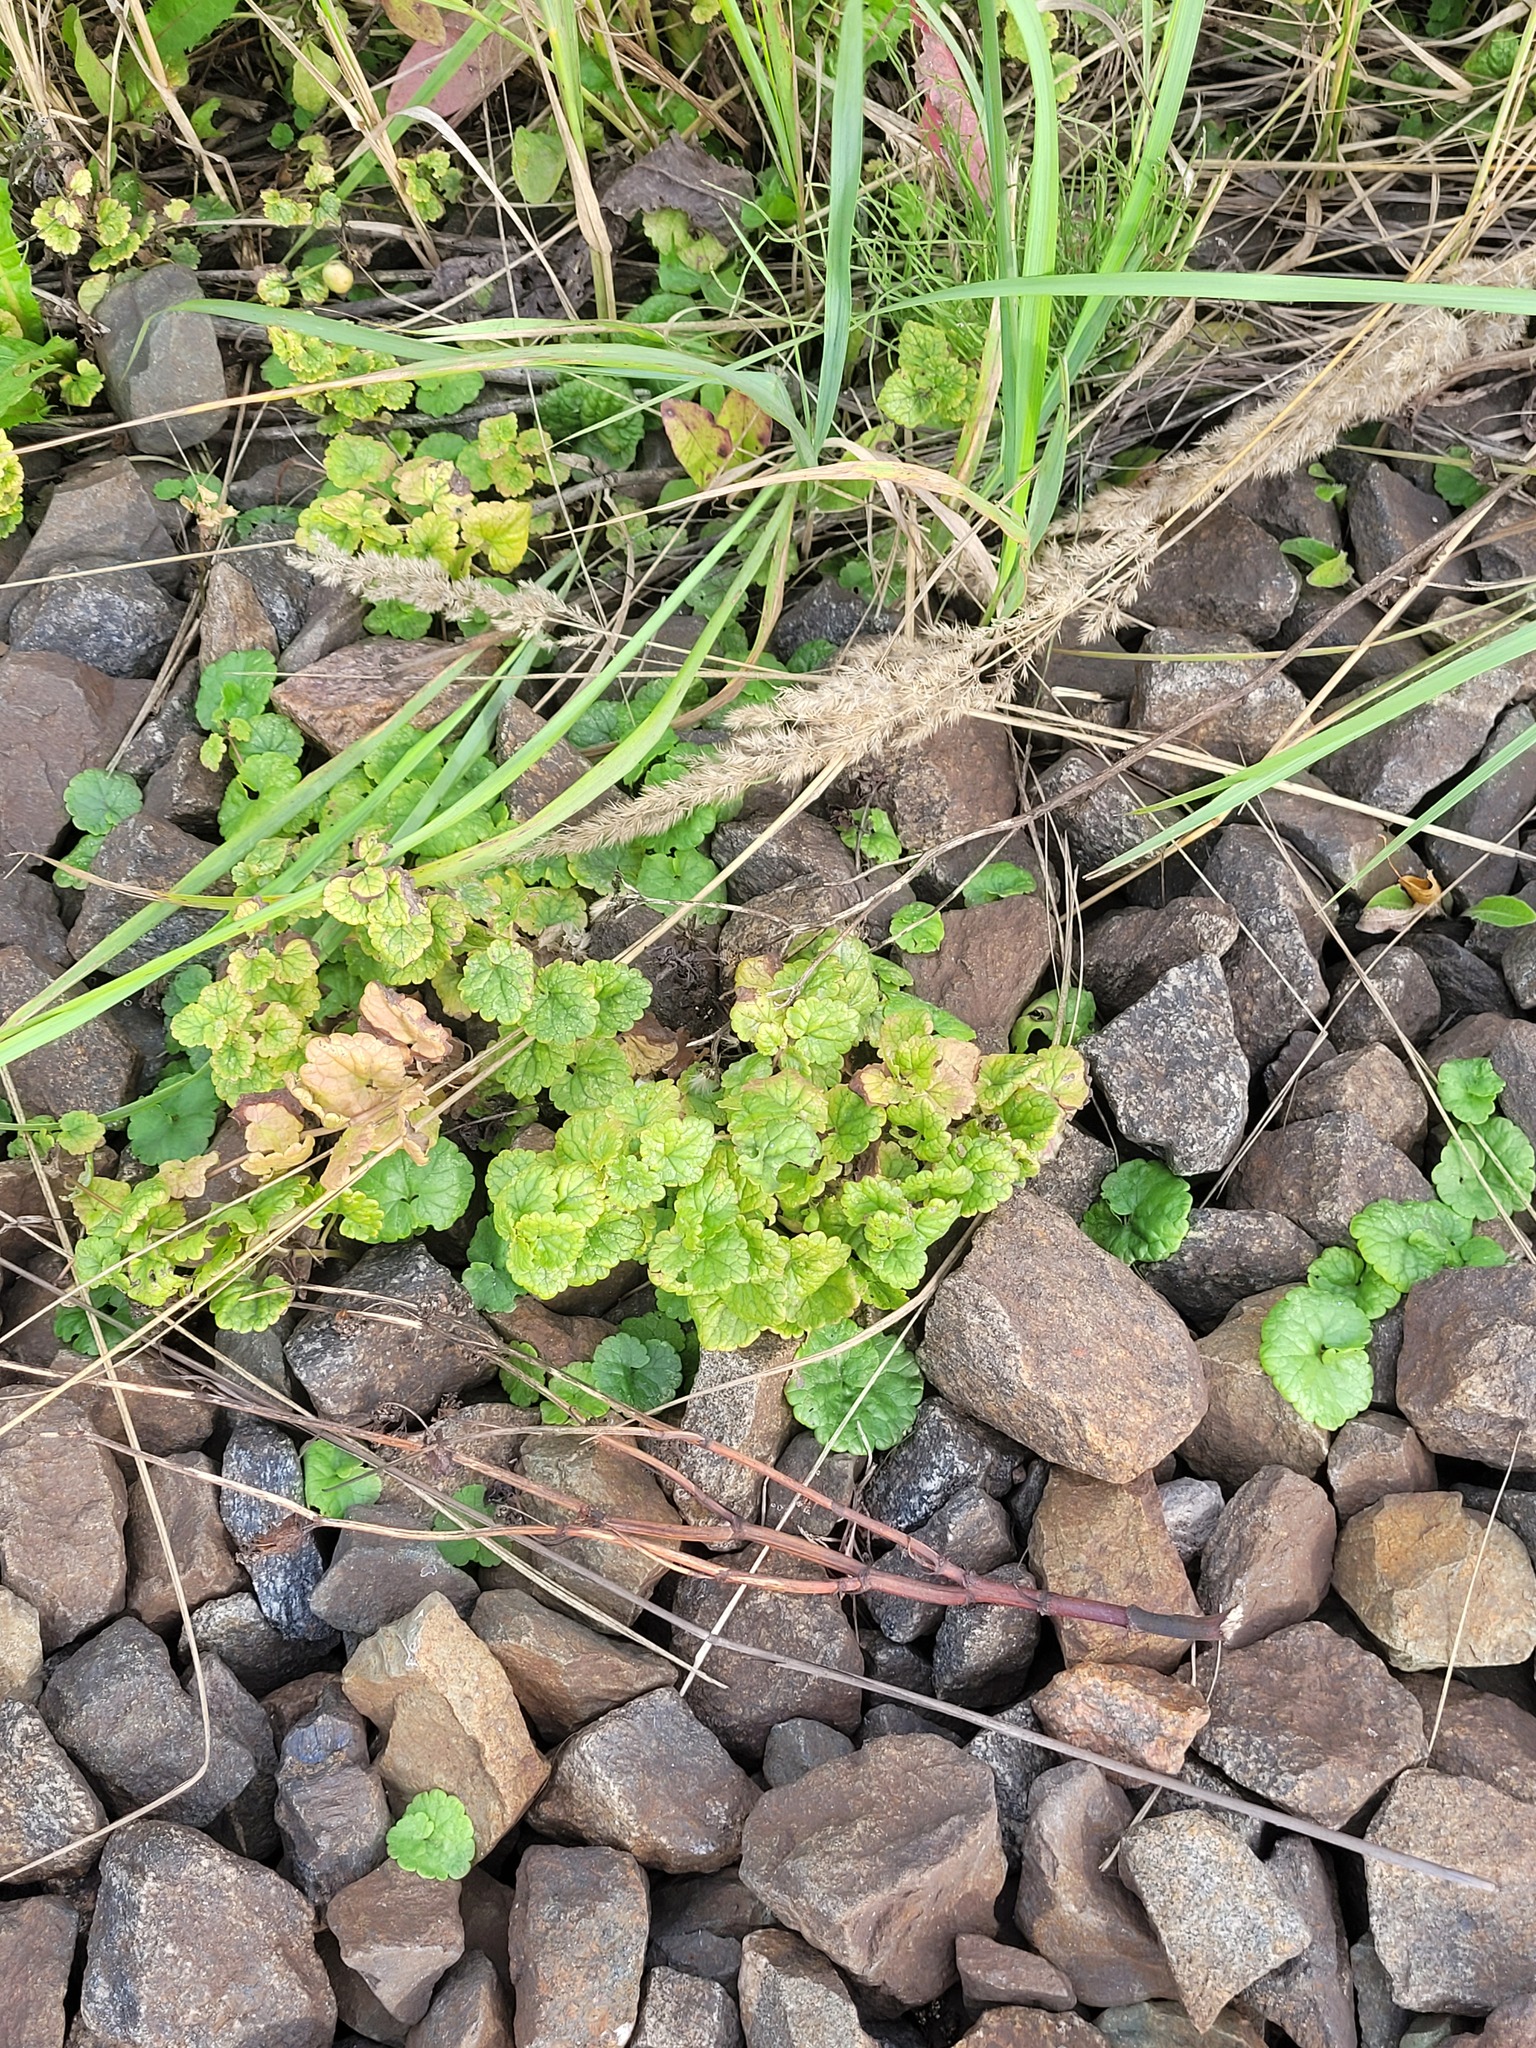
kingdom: Plantae
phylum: Tracheophyta
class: Magnoliopsida
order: Lamiales
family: Lamiaceae
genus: Glechoma
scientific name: Glechoma hederacea
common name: Ground ivy
